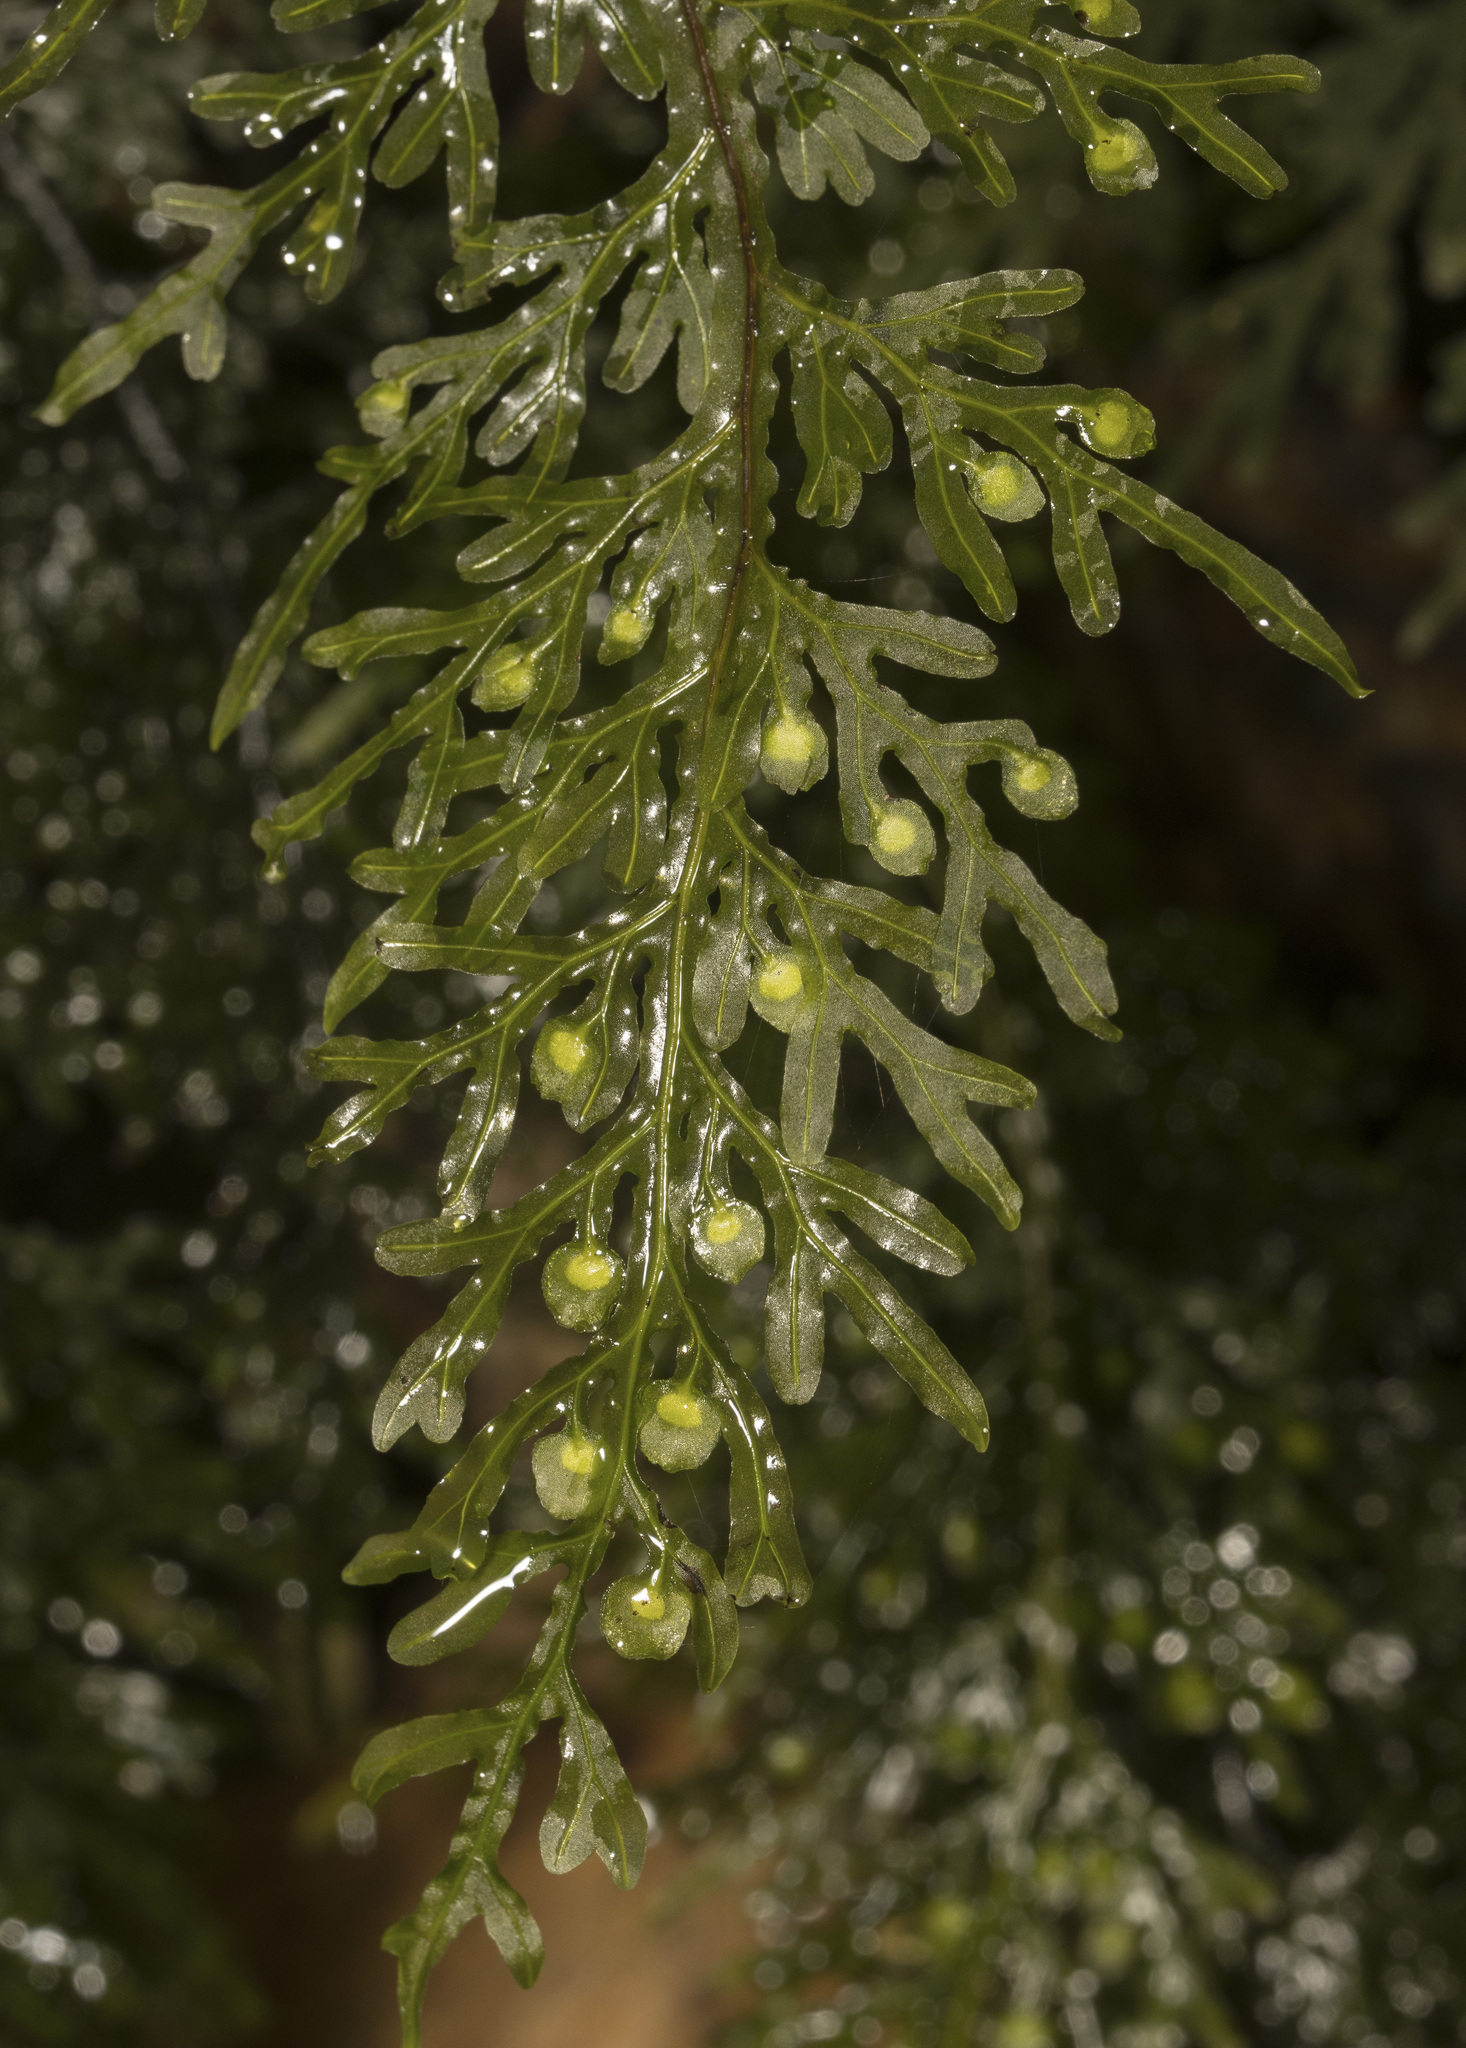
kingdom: Plantae
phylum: Tracheophyta
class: Polypodiopsida
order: Hymenophyllales
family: Hymenophyllaceae
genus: Hymenophyllum
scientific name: Hymenophyllum caudiculatum
